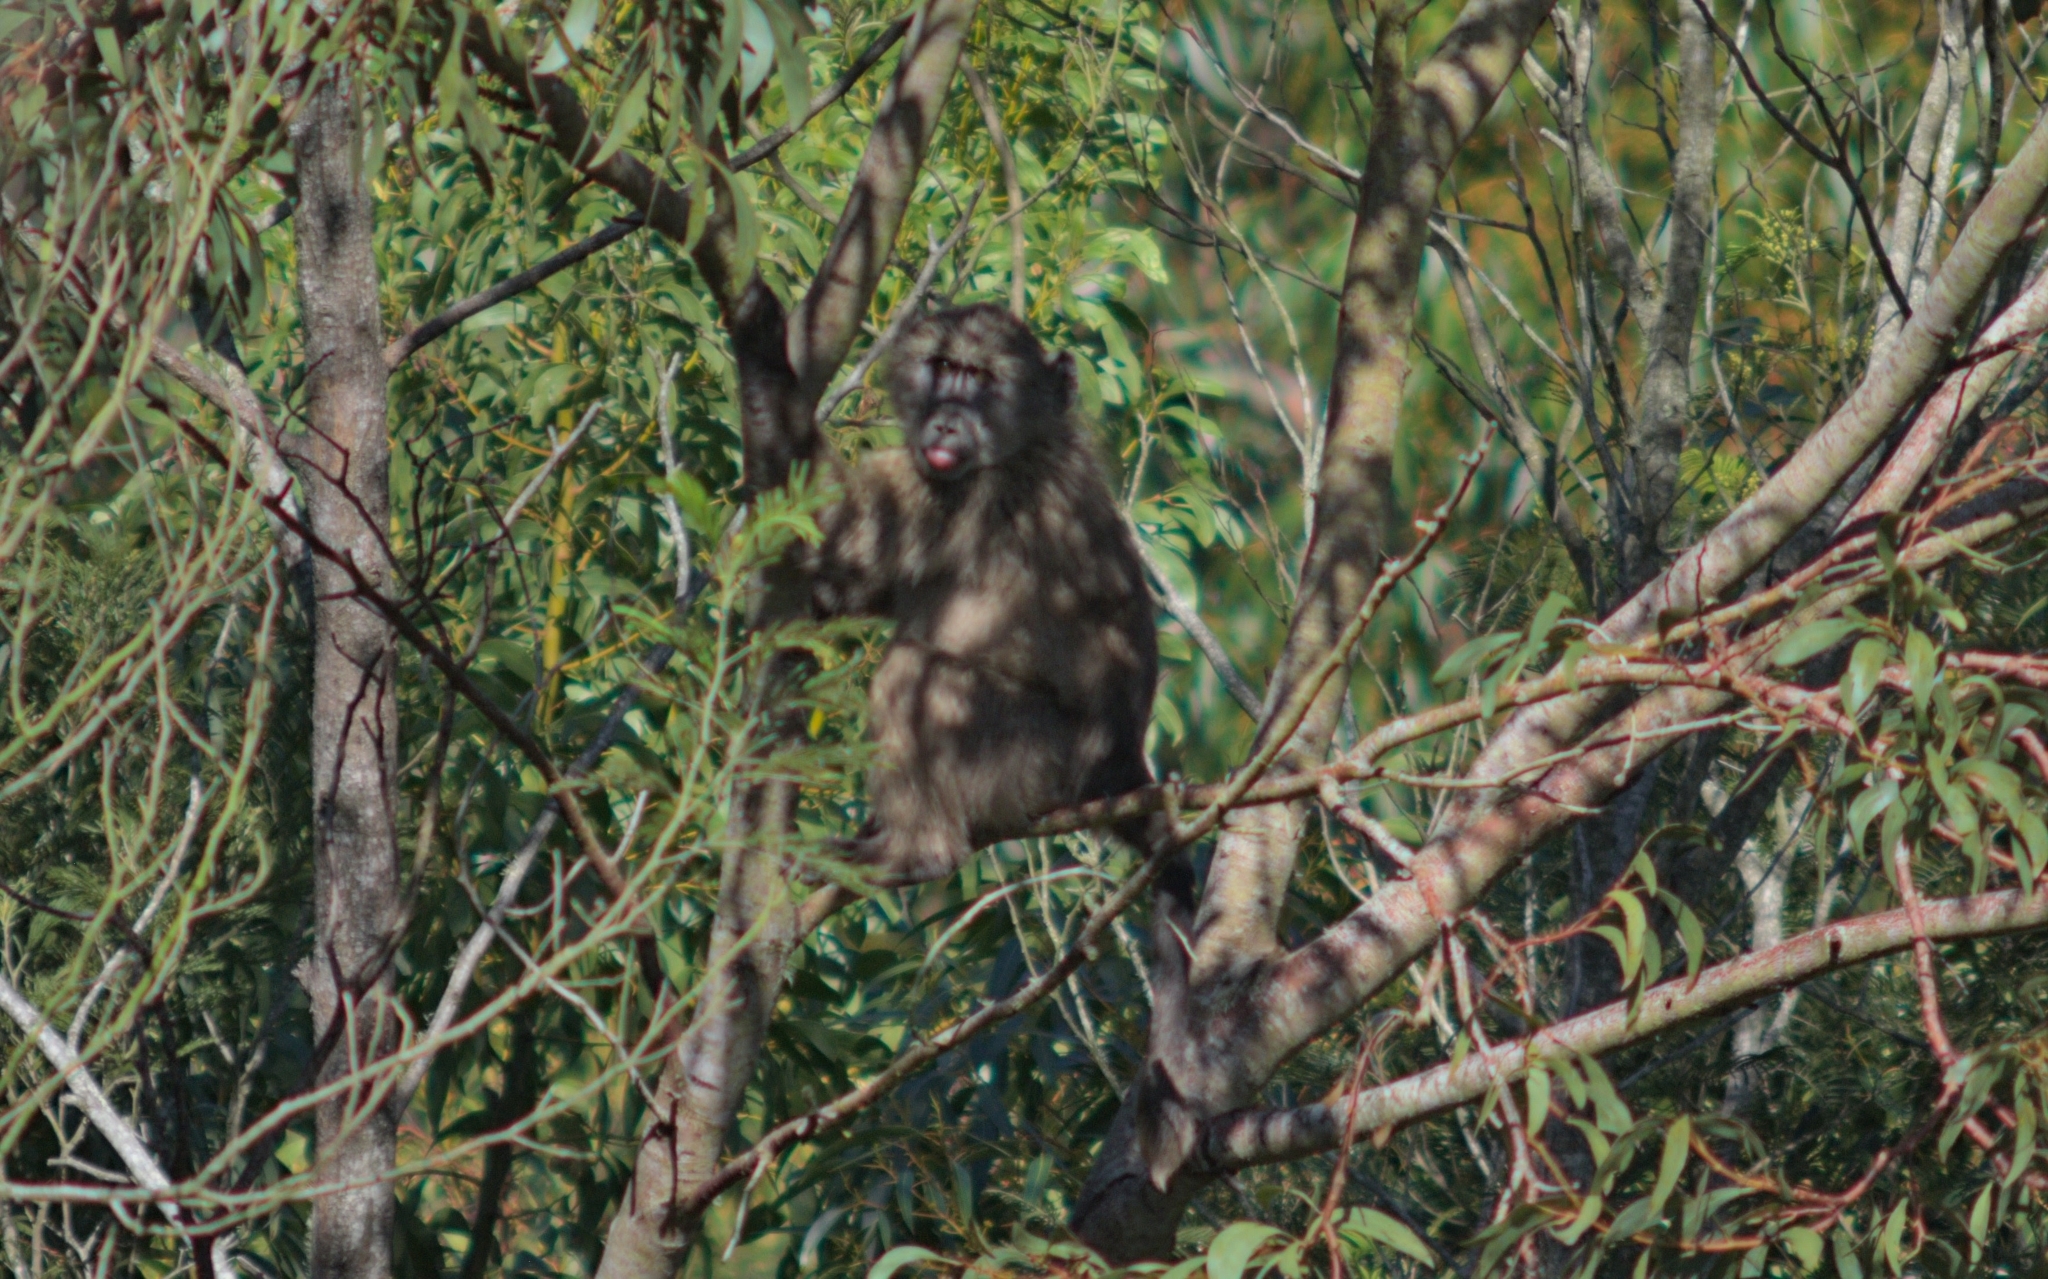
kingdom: Animalia
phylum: Chordata
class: Mammalia
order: Primates
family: Cercopithecidae
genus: Papio
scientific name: Papio ursinus
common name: Chacma baboon
